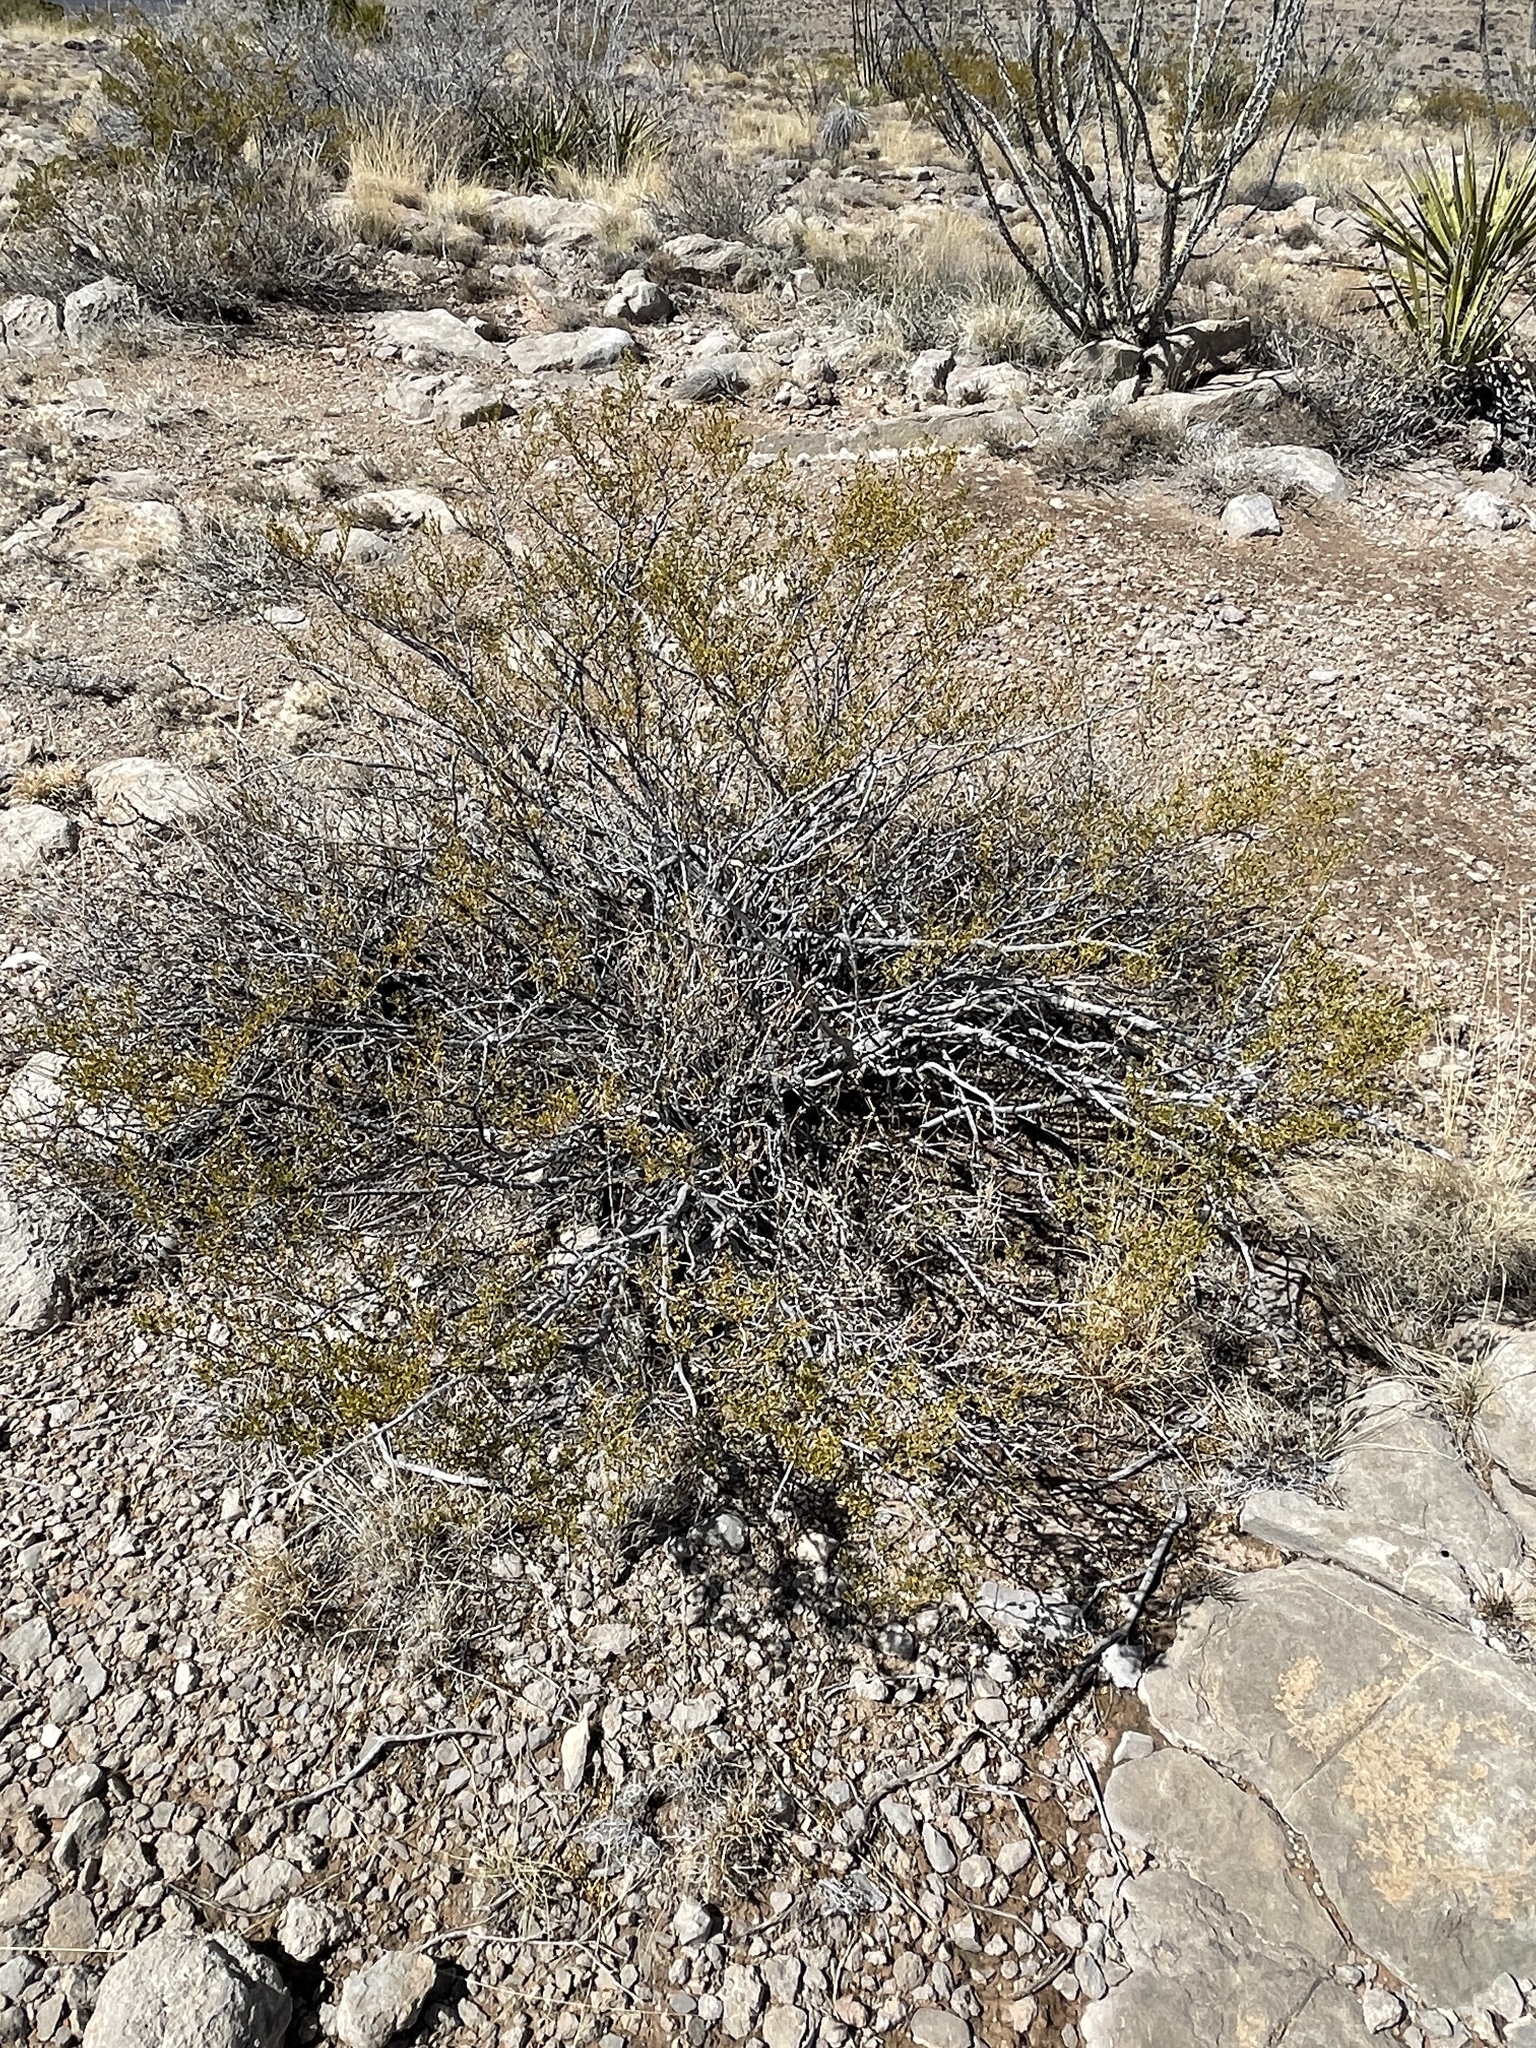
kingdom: Plantae
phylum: Tracheophyta
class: Magnoliopsida
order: Zygophyllales
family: Zygophyllaceae
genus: Larrea
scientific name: Larrea tridentata
